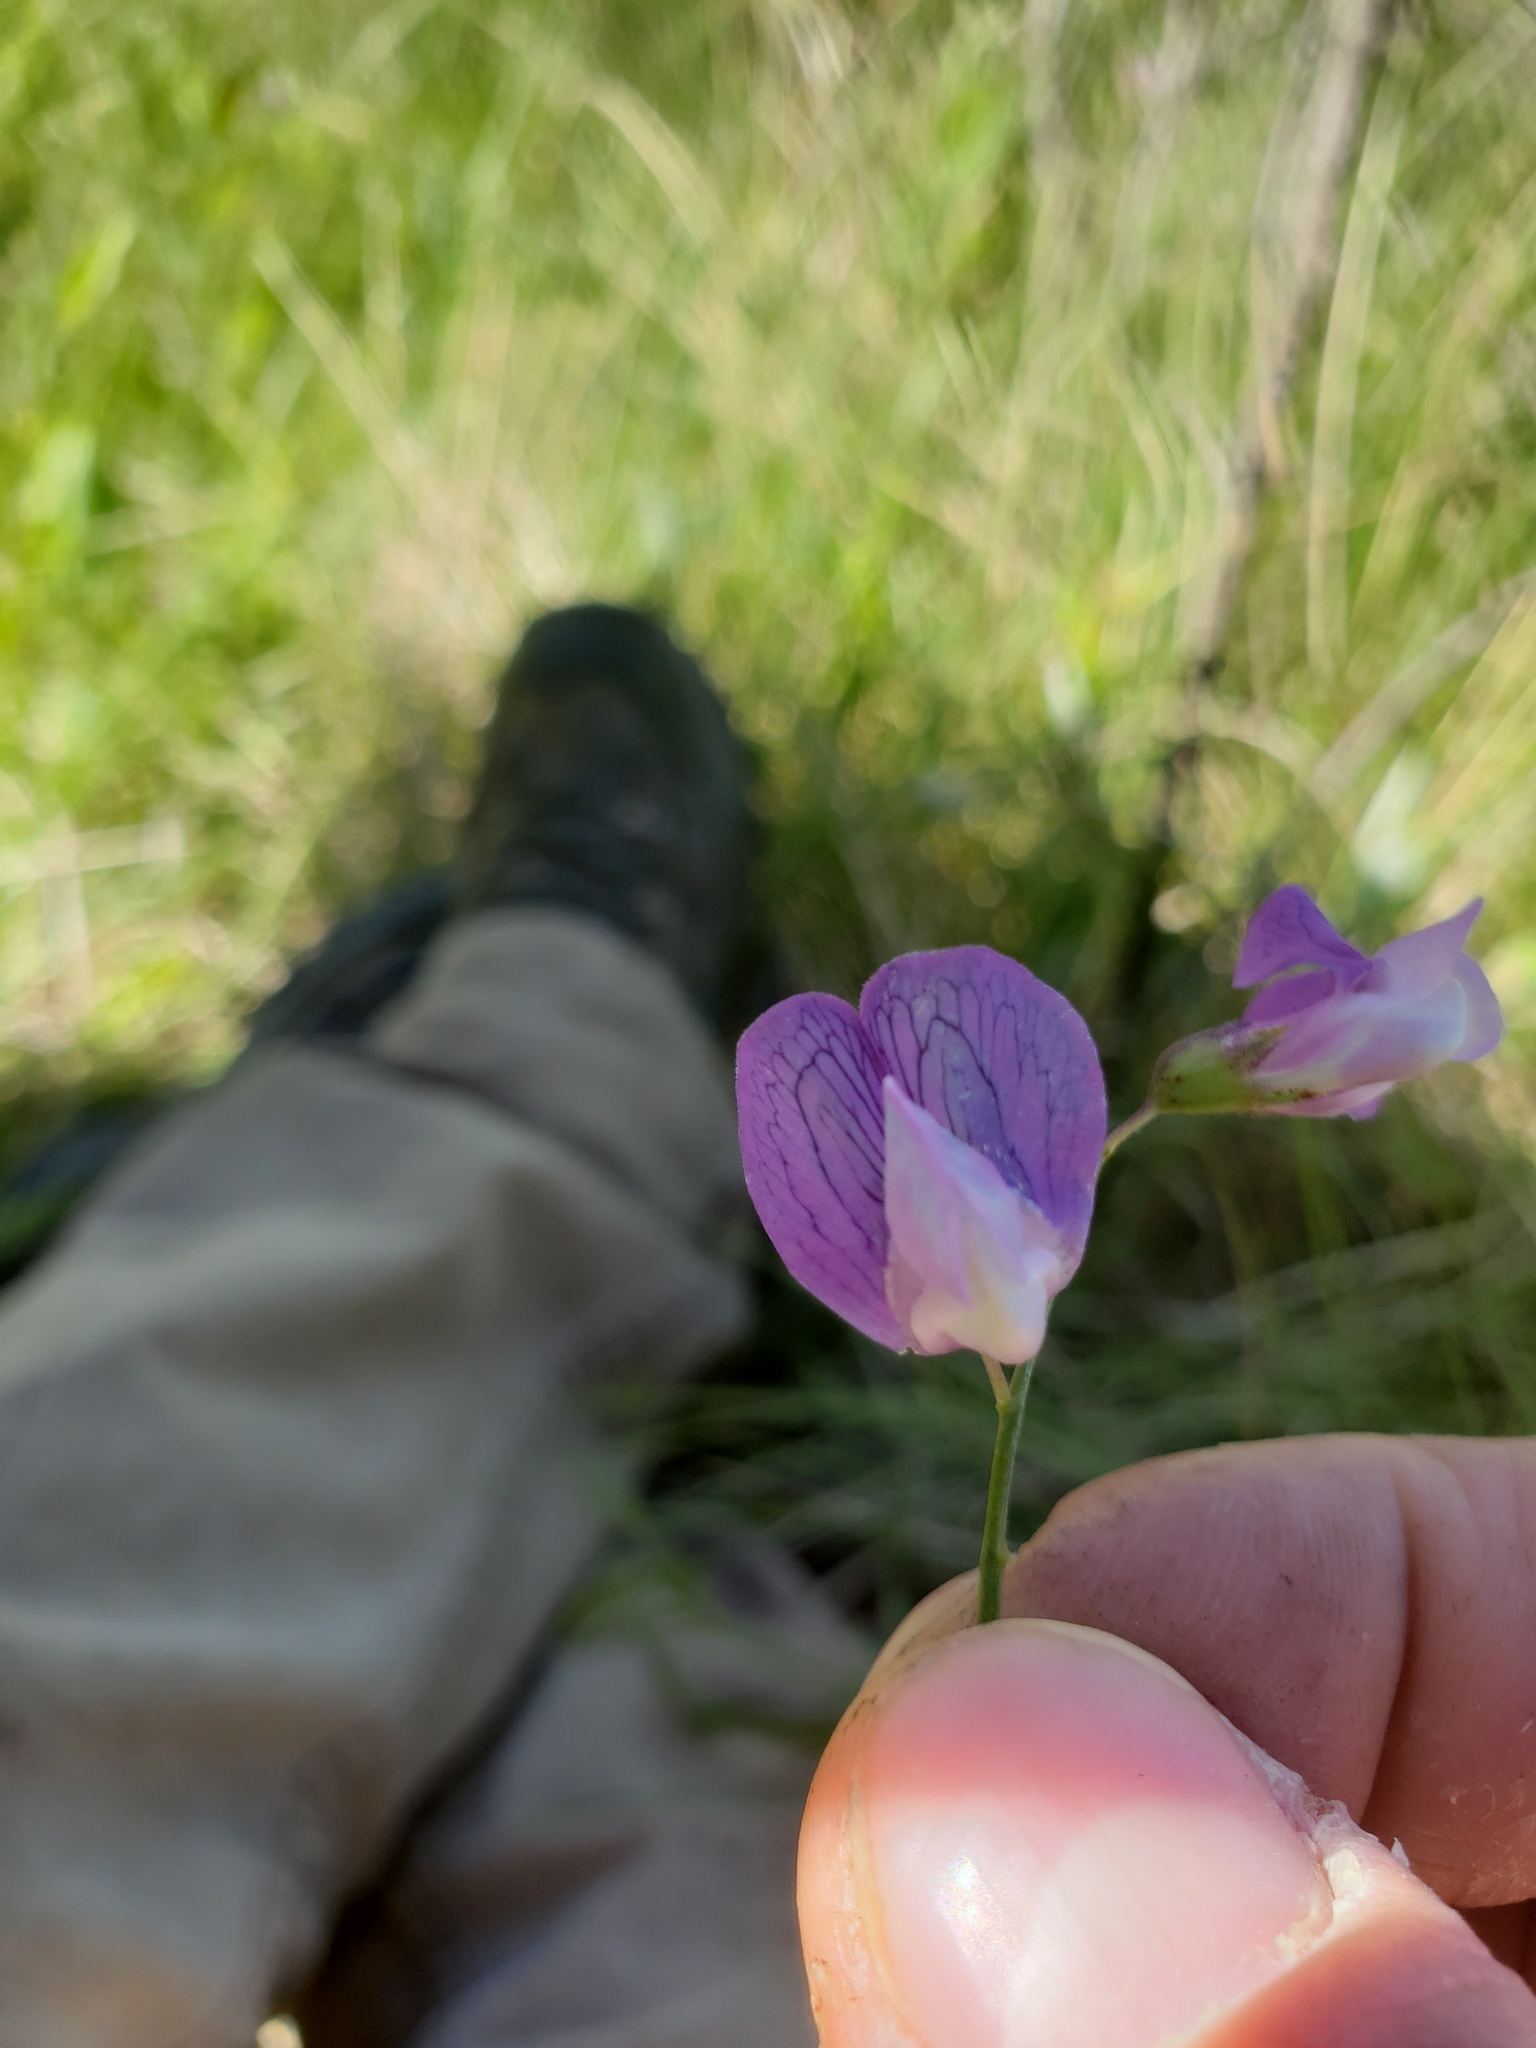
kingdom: Plantae
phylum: Tracheophyta
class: Magnoliopsida
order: Fabales
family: Fabaceae
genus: Lathyrus
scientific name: Lathyrus palustris
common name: Marsh pea
